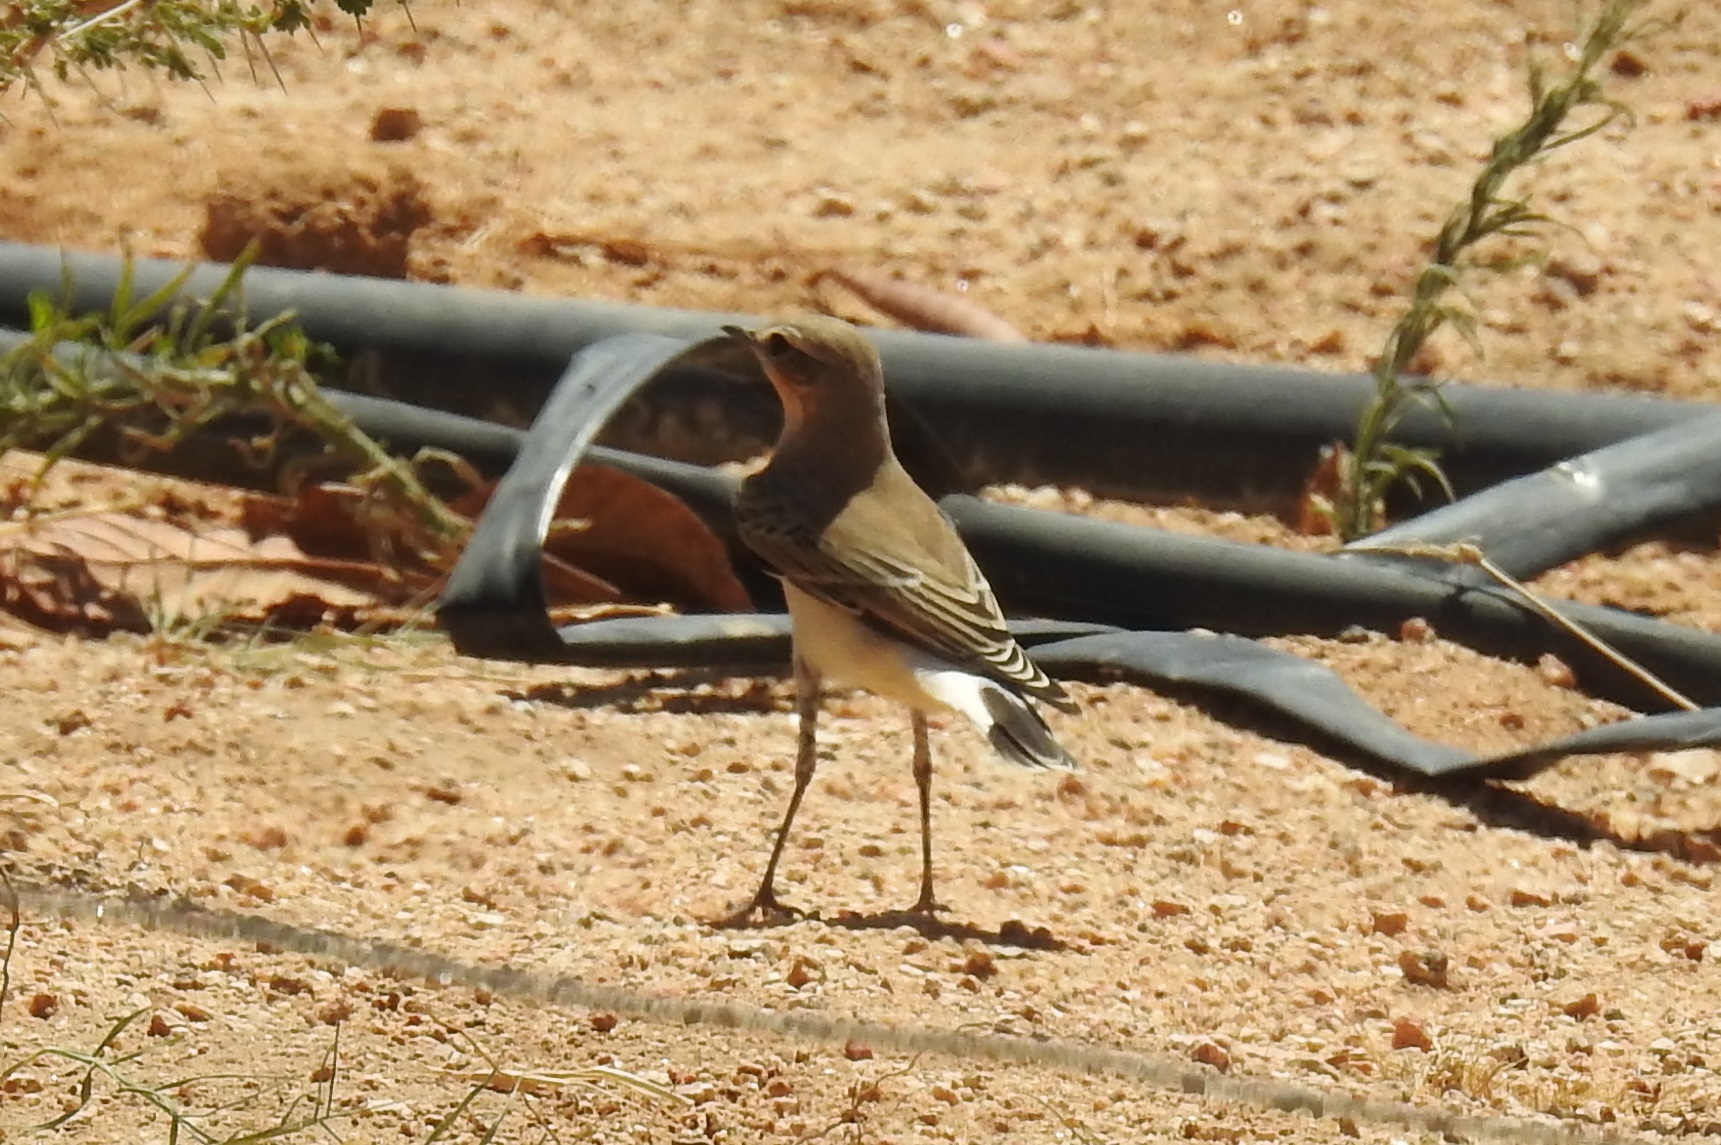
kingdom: Animalia
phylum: Chordata
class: Aves
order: Passeriformes
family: Muscicapidae
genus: Oenanthe
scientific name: Oenanthe oenanthe
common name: Northern wheatear
